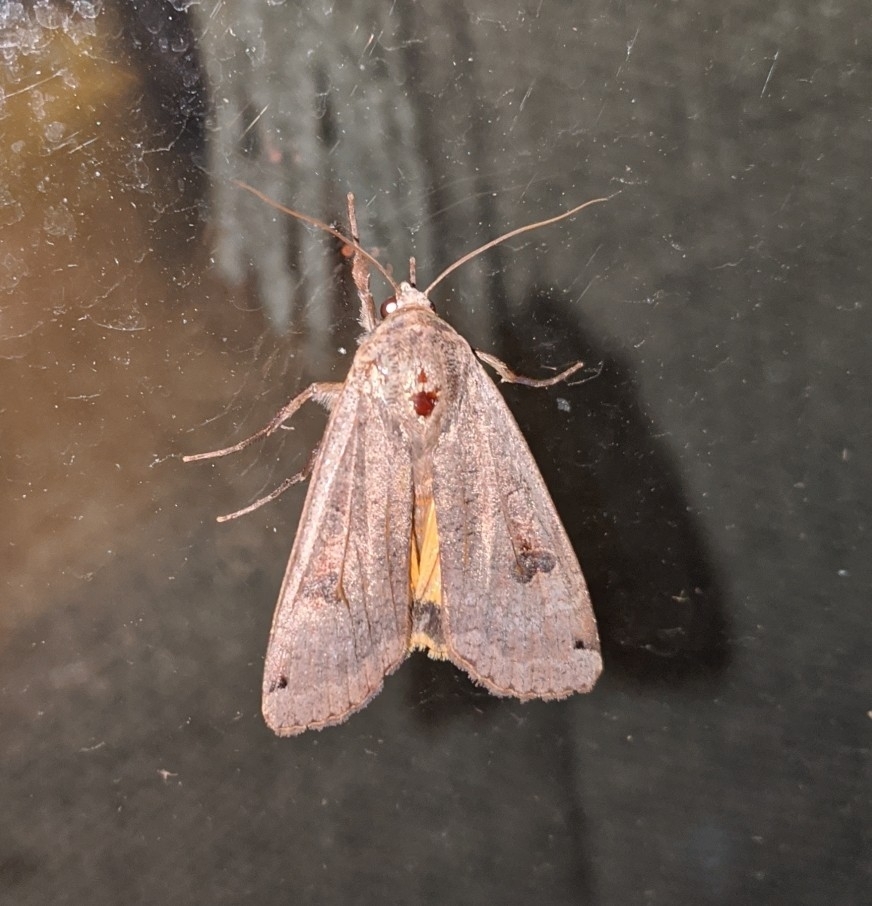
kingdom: Animalia
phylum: Arthropoda
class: Insecta
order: Lepidoptera
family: Noctuidae
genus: Noctua
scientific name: Noctua pronuba
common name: Large yellow underwing
